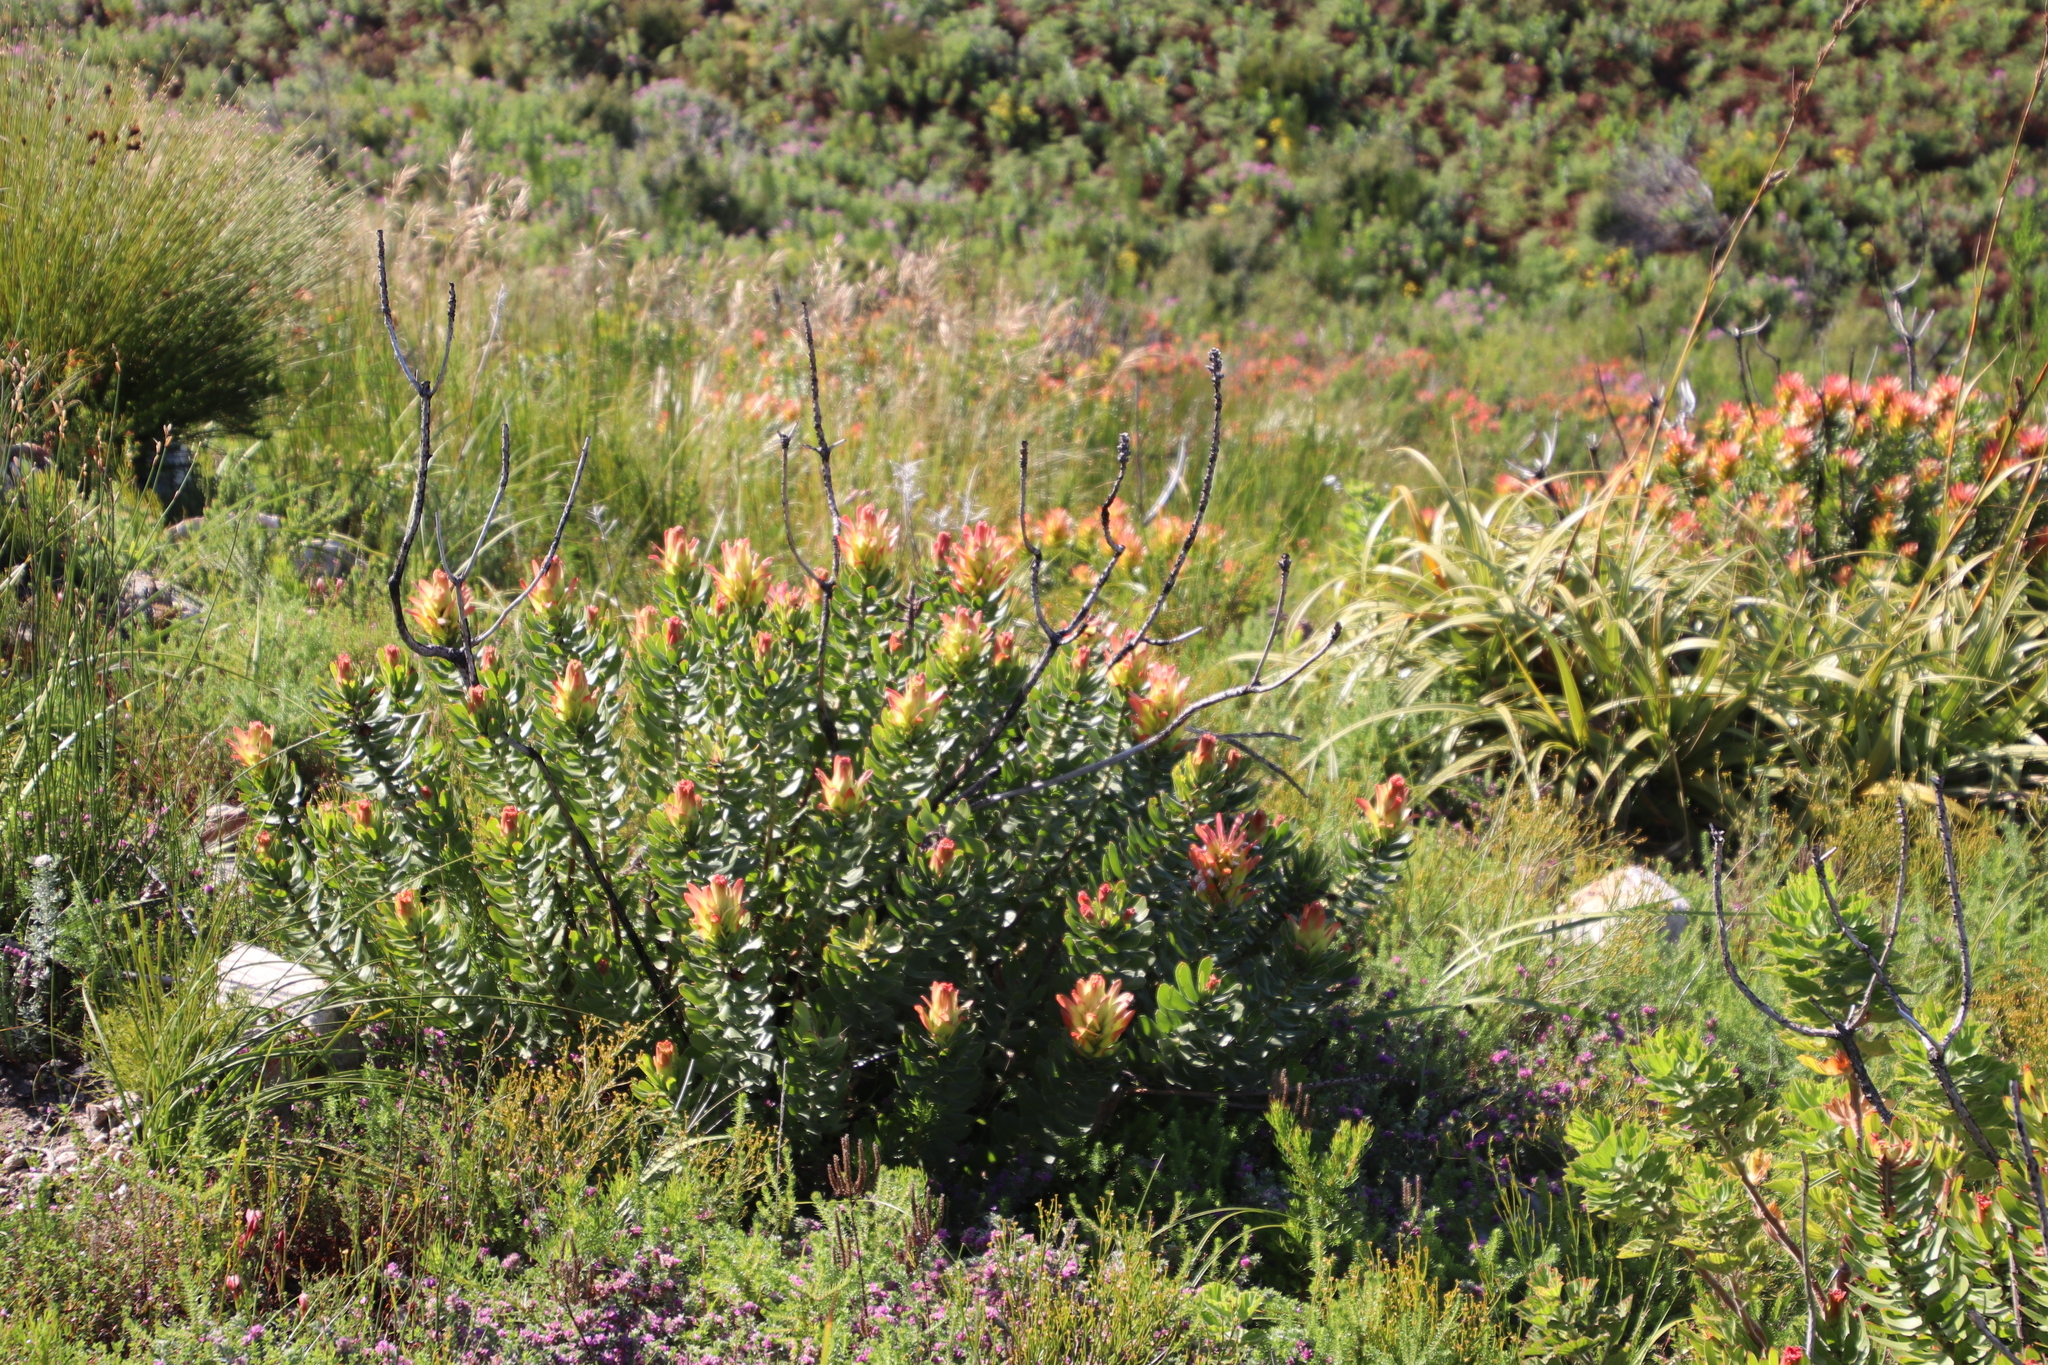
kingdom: Plantae
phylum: Tracheophyta
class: Magnoliopsida
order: Proteales
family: Proteaceae
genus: Mimetes
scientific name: Mimetes cucullatus
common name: Common pagoda
